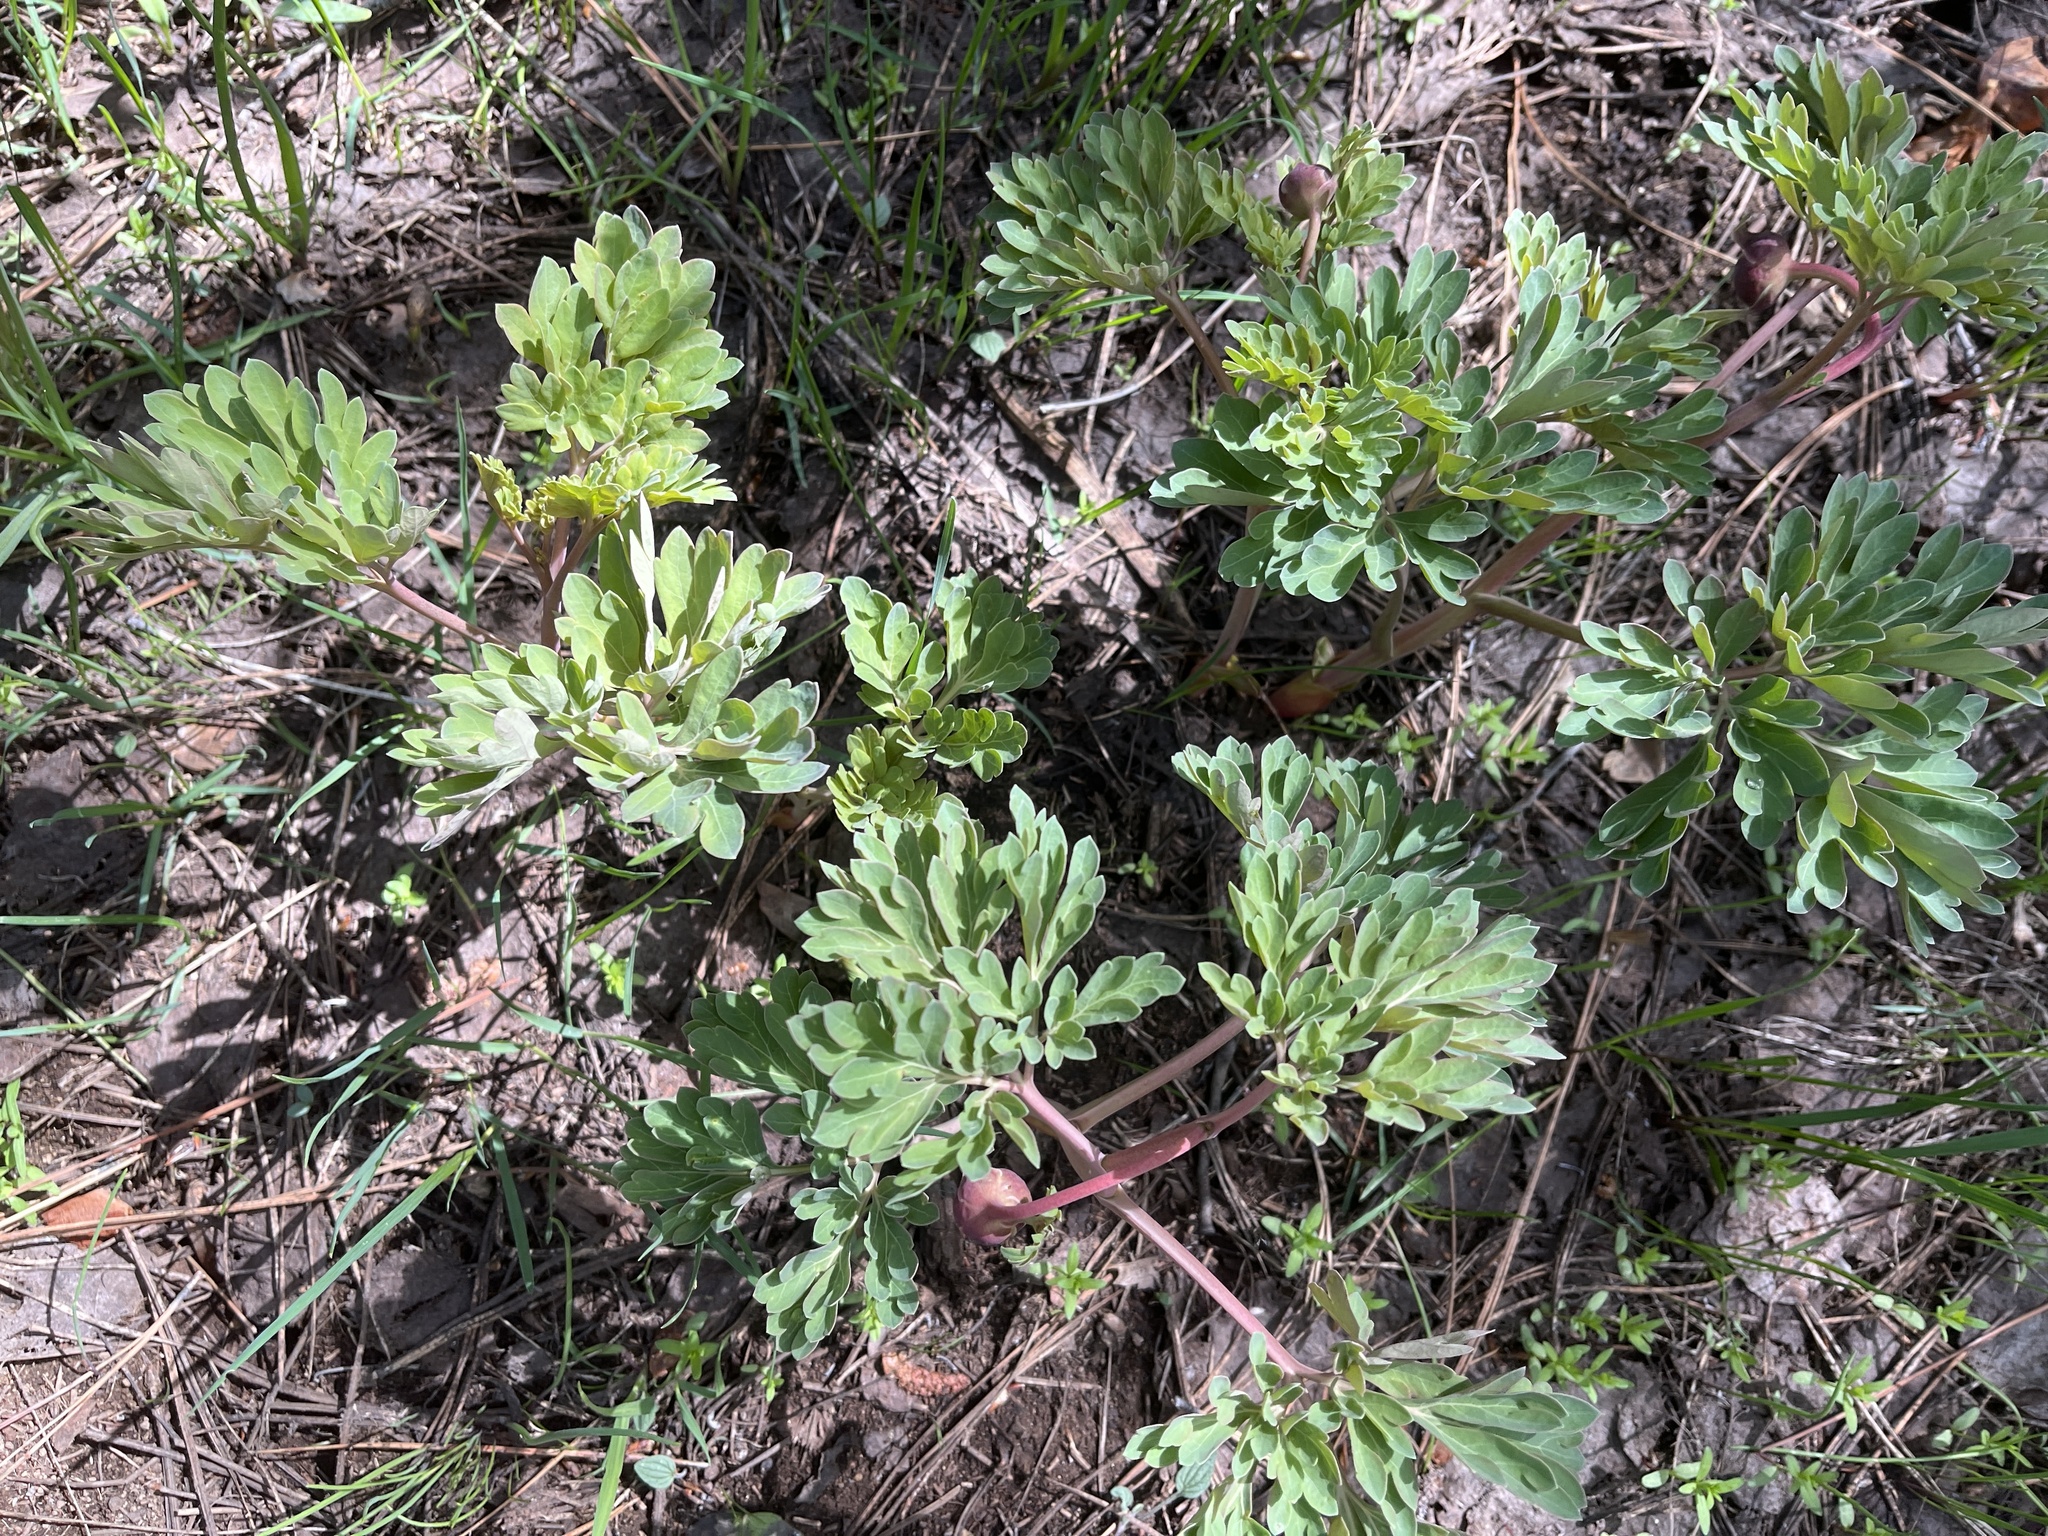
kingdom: Plantae
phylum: Tracheophyta
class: Magnoliopsida
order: Saxifragales
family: Paeoniaceae
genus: Paeonia
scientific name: Paeonia brownii
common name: Brown's peony
